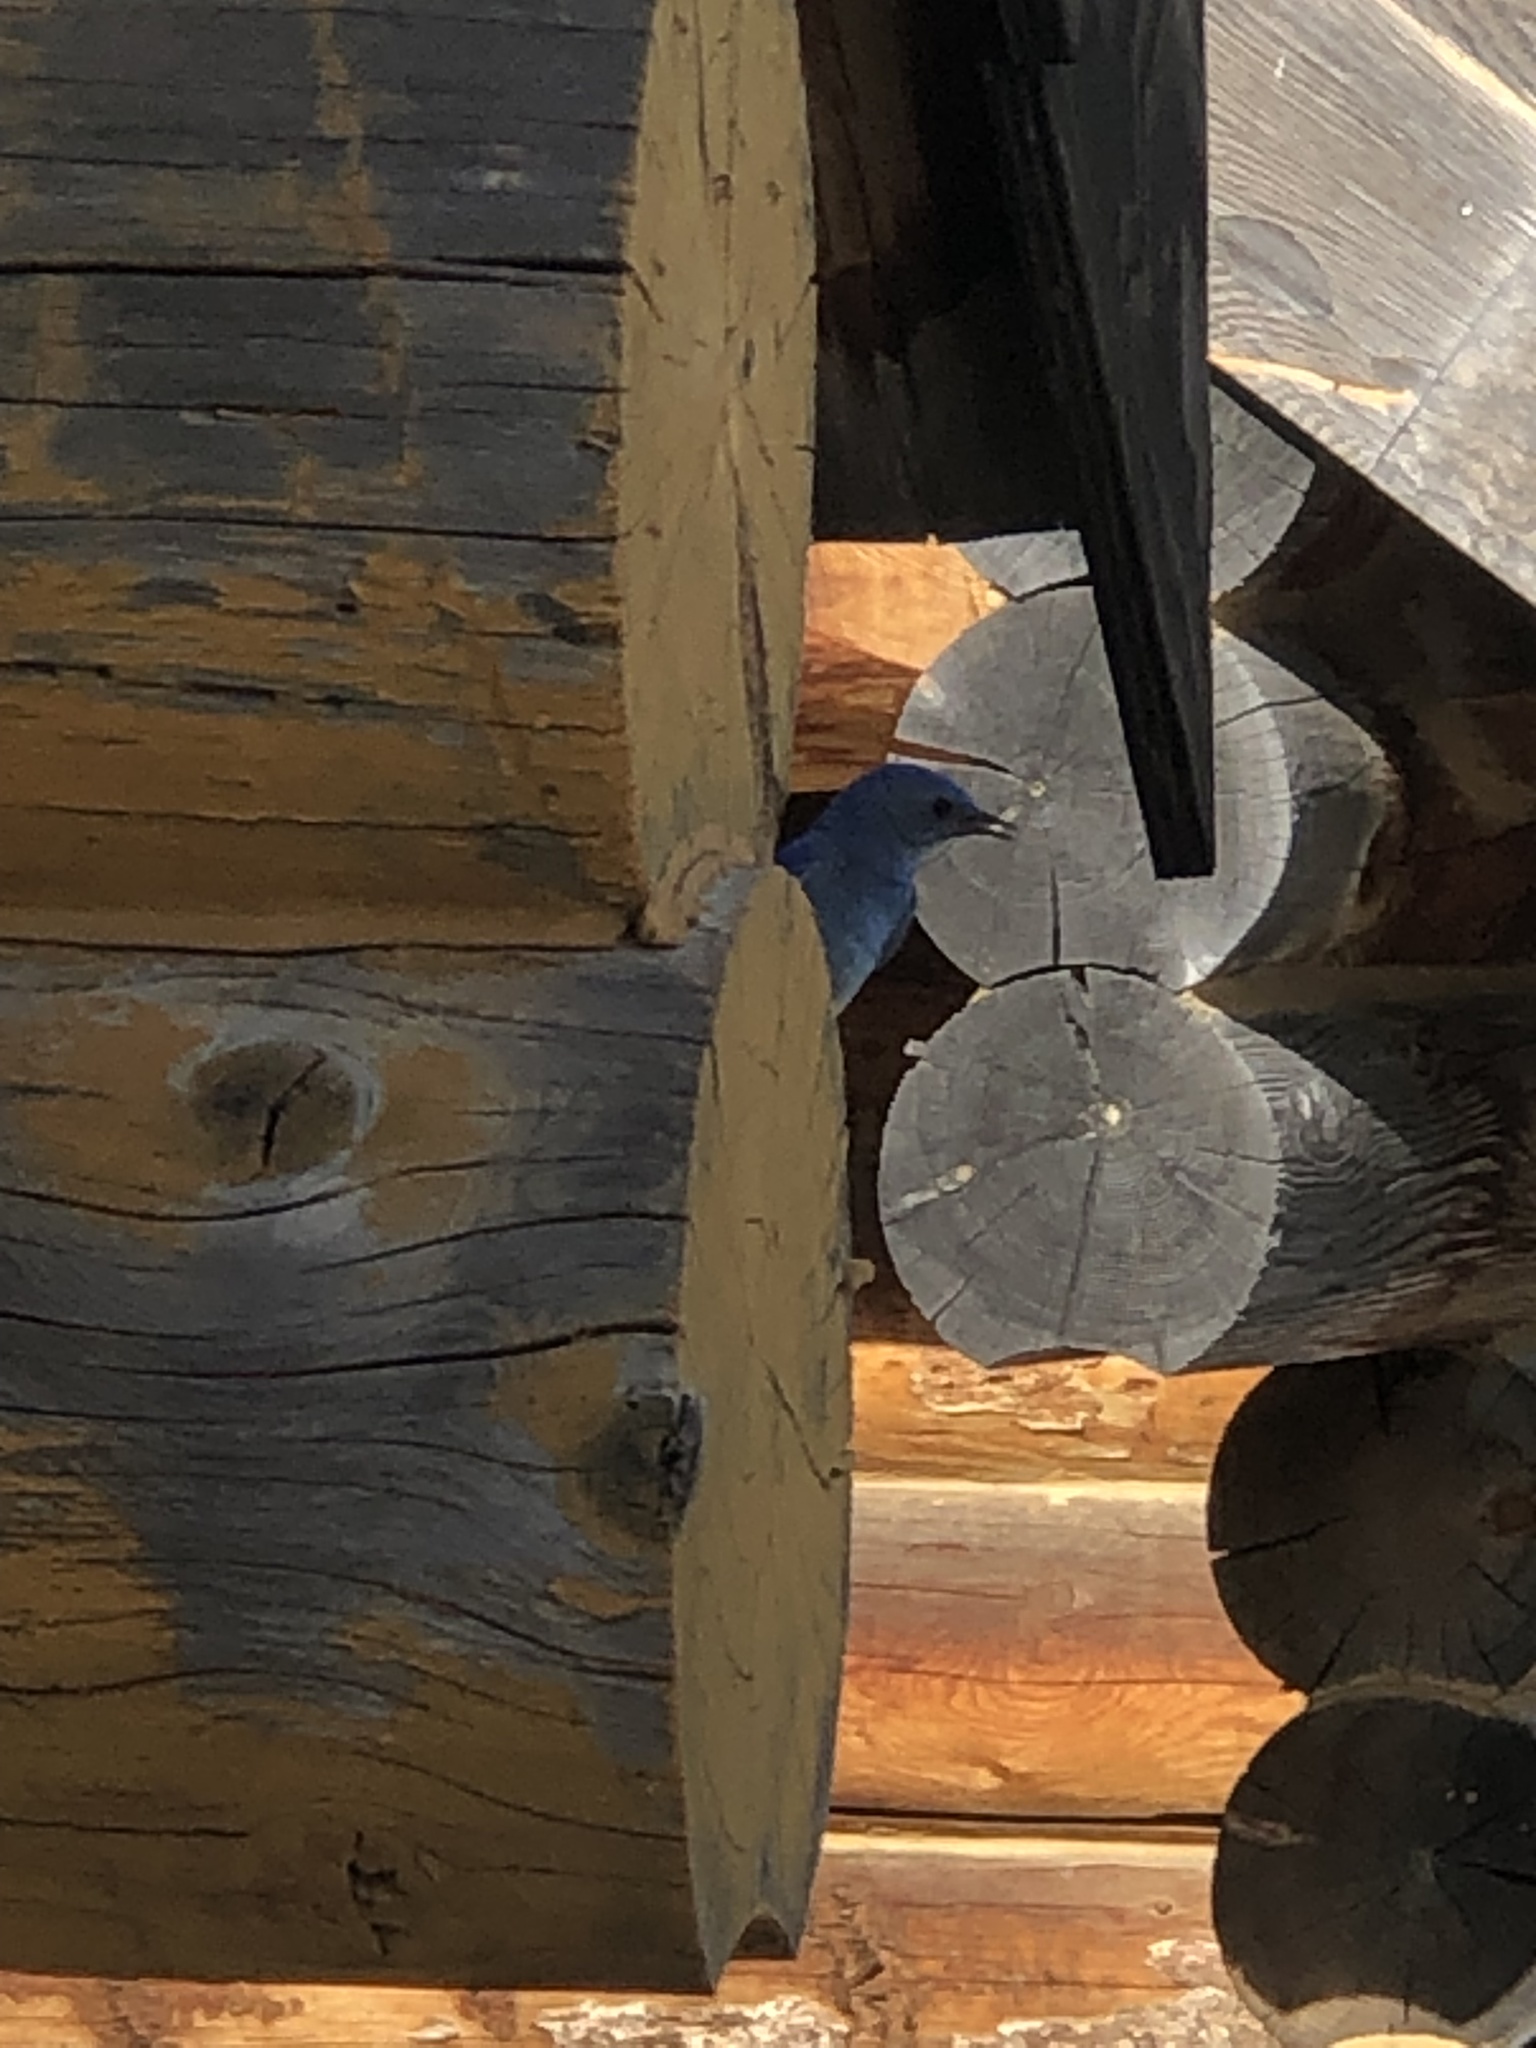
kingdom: Animalia
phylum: Chordata
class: Aves
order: Passeriformes
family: Turdidae
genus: Sialia
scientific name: Sialia currucoides
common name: Mountain bluebird
